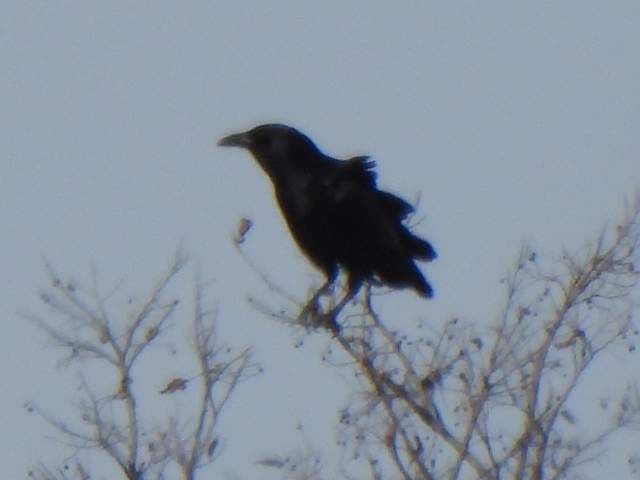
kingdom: Animalia
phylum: Chordata
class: Aves
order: Passeriformes
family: Corvidae
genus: Corvus
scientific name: Corvus brachyrhynchos
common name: American crow
